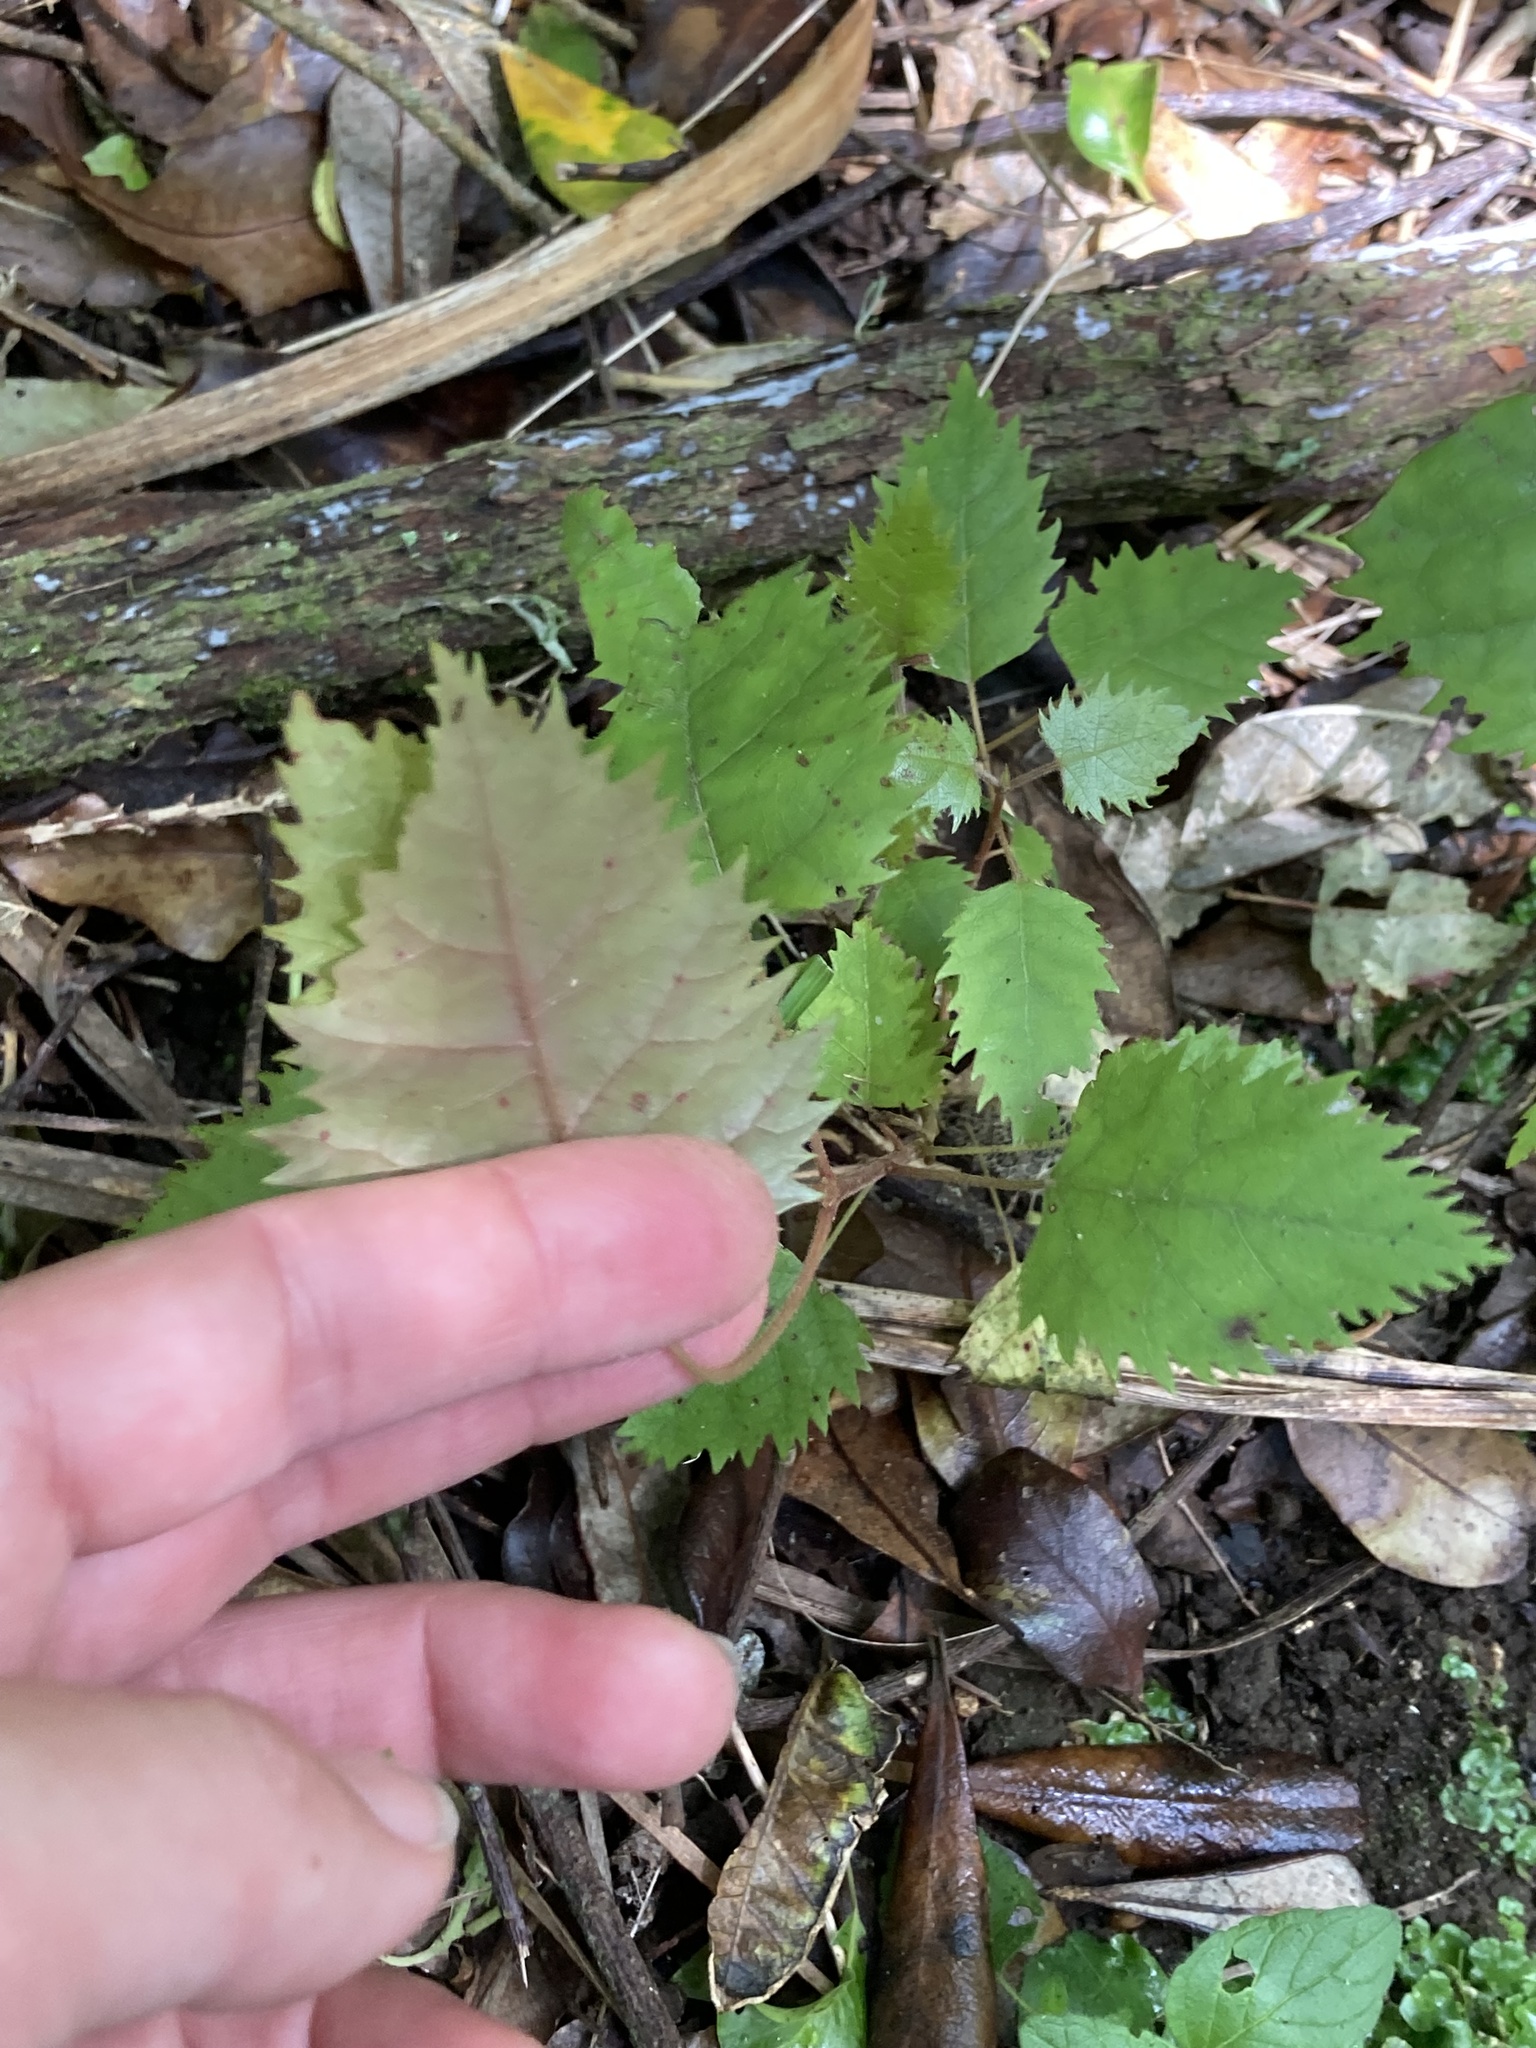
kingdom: Plantae
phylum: Tracheophyta
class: Magnoliopsida
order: Oxalidales
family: Elaeocarpaceae
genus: Aristotelia
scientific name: Aristotelia serrata
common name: New zealand wineberry
